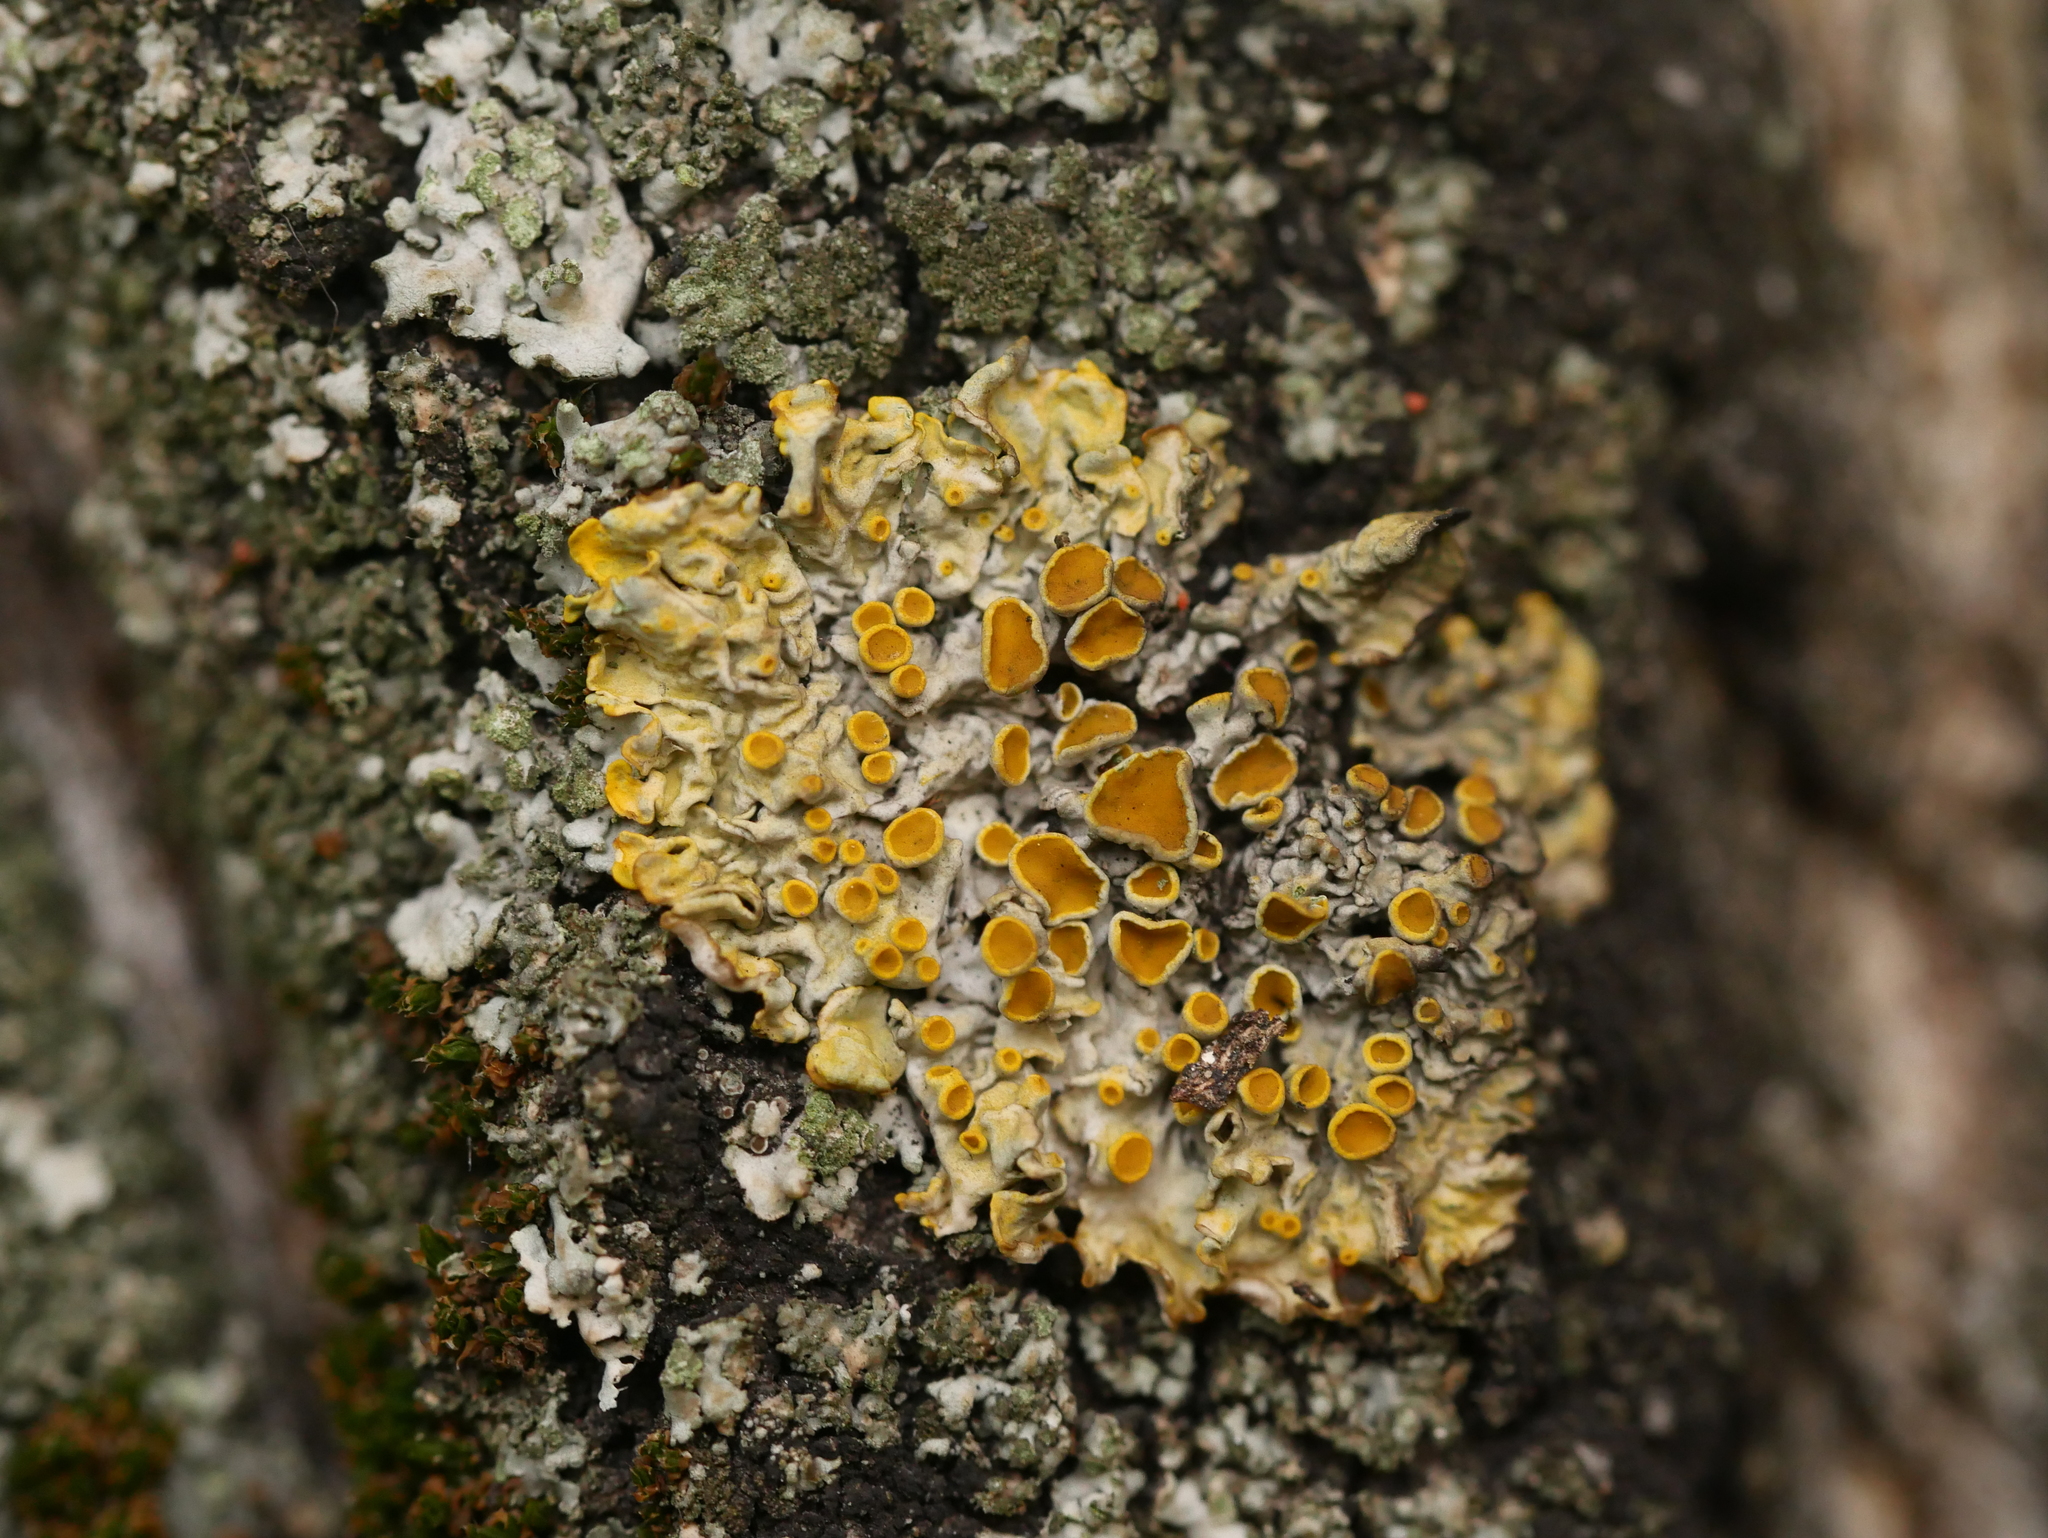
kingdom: Fungi
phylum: Ascomycota
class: Lecanoromycetes
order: Teloschistales
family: Teloschistaceae
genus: Xanthoria
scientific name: Xanthoria parietina
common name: Common orange lichen
